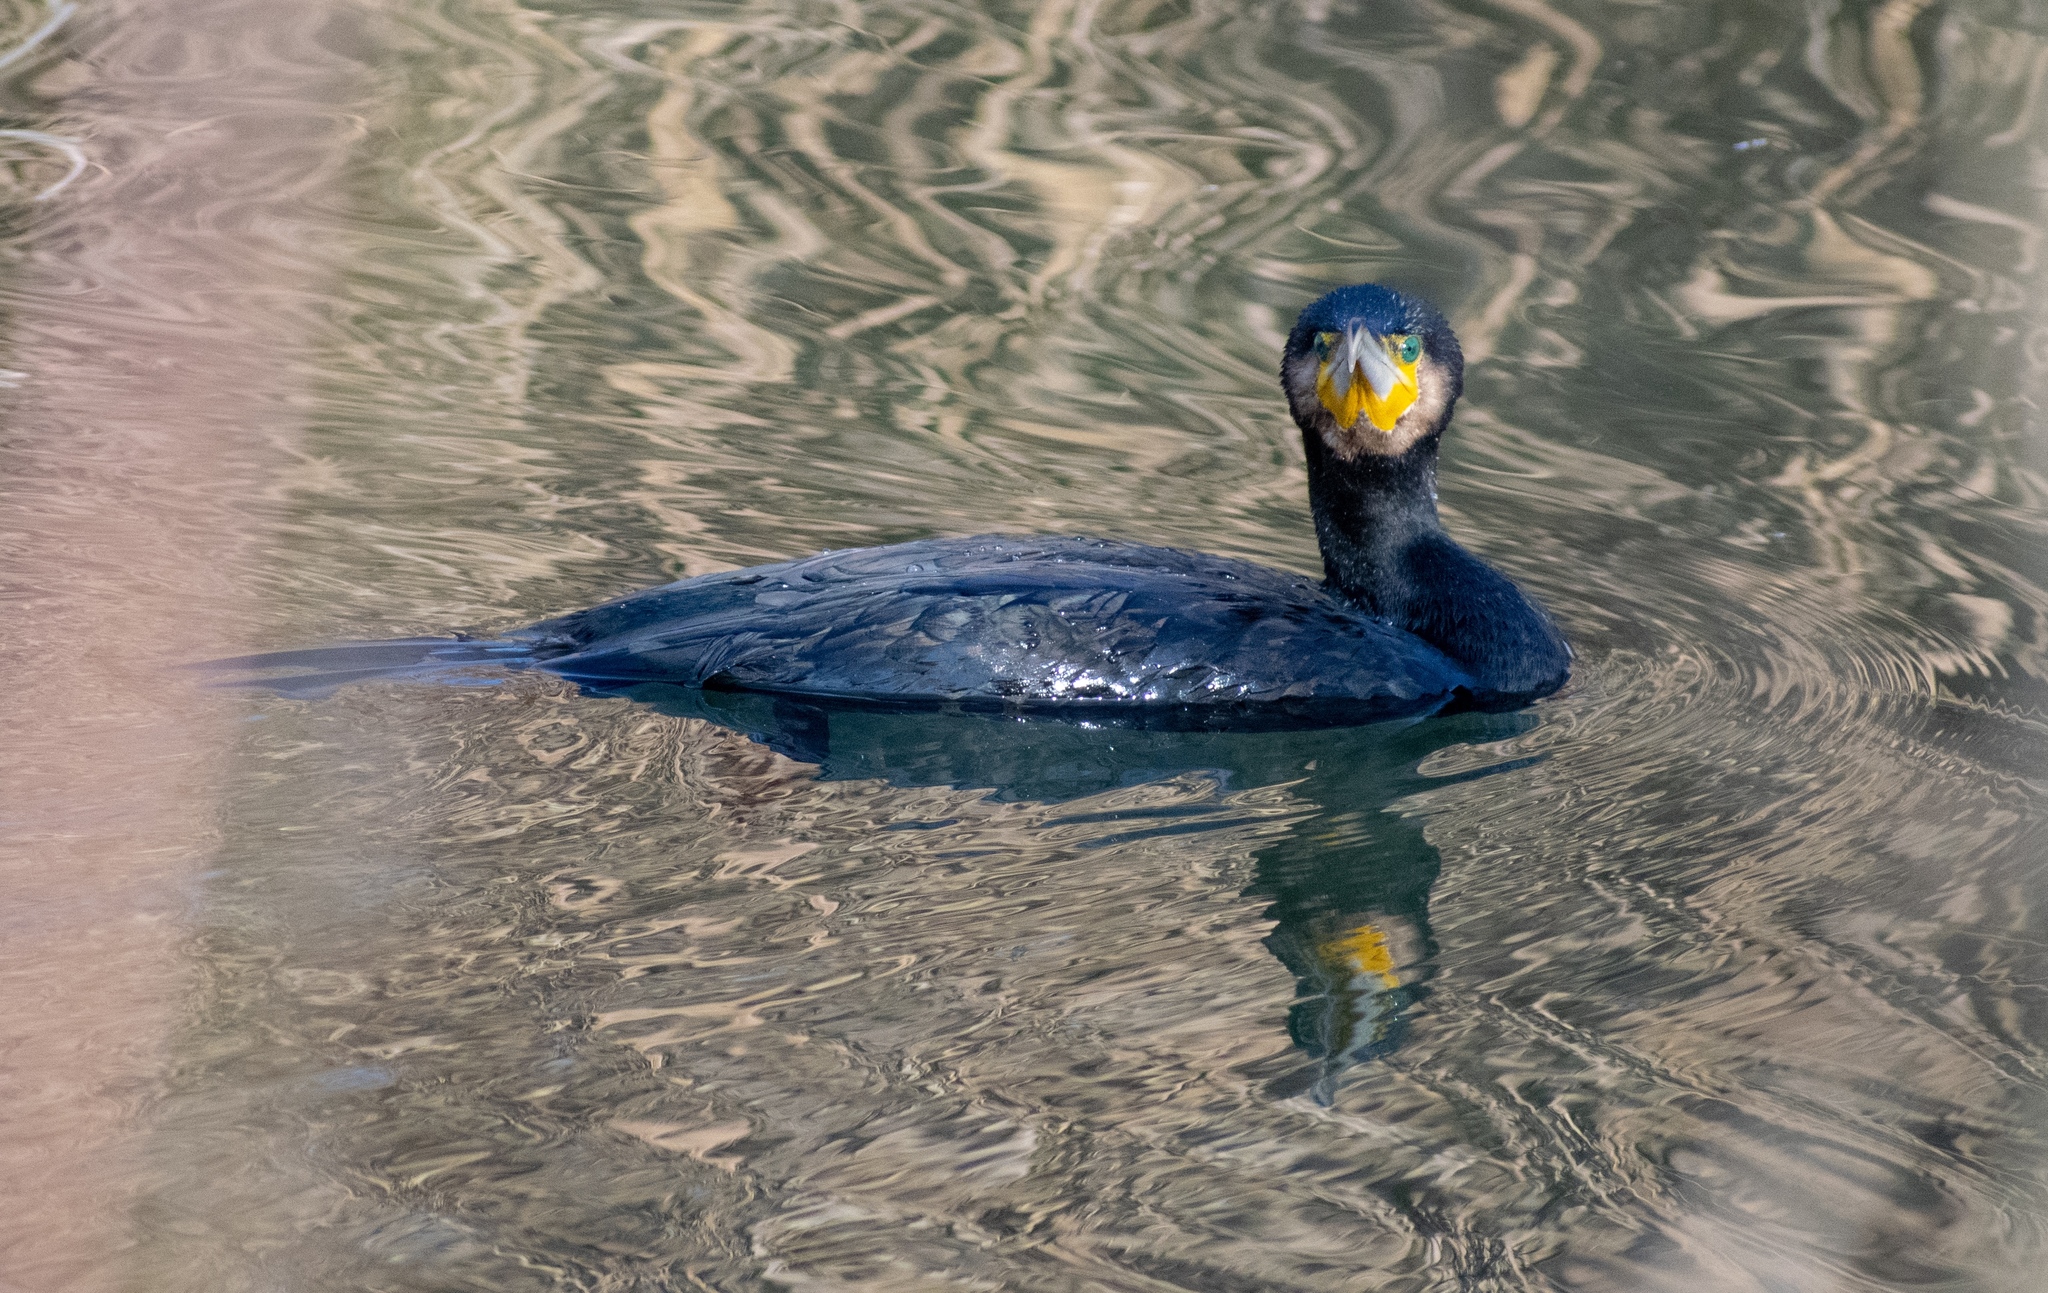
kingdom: Animalia
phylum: Chordata
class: Aves
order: Suliformes
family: Phalacrocoracidae
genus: Phalacrocorax
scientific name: Phalacrocorax carbo
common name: Great cormorant
